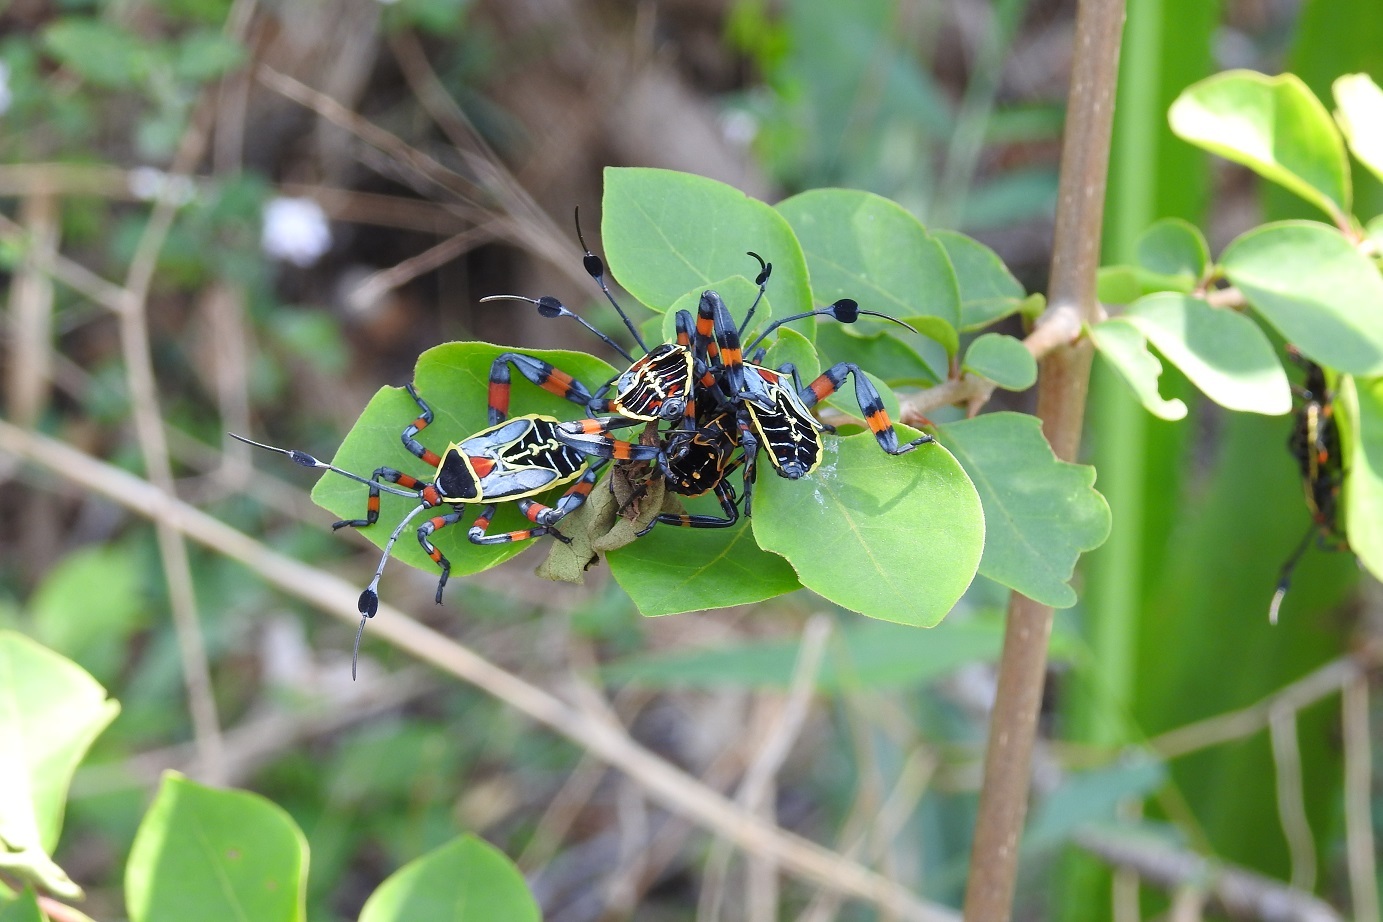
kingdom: Animalia
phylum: Arthropoda
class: Insecta
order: Hemiptera
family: Coreidae
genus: Thasus
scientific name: Thasus acutangulus
